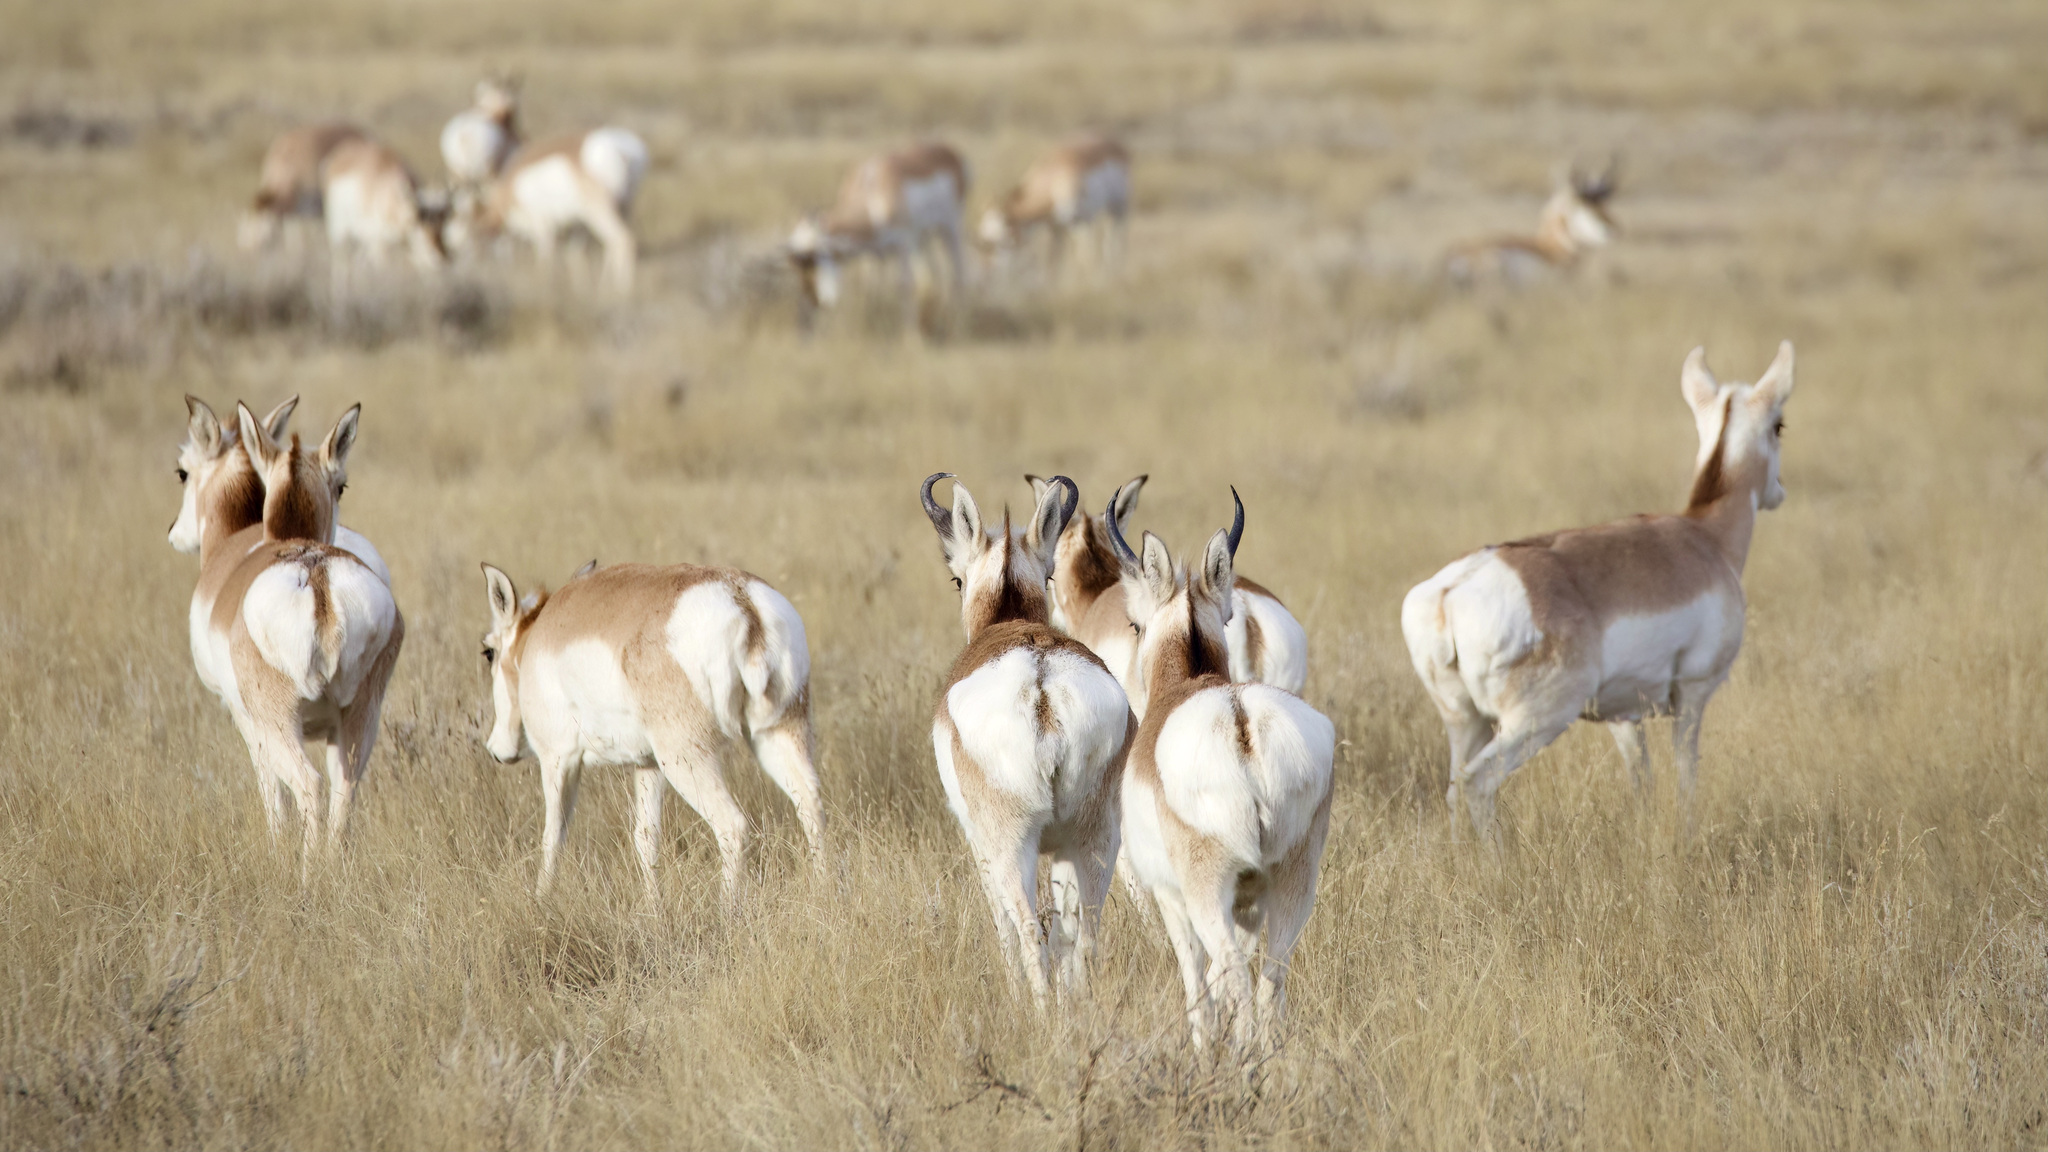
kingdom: Animalia
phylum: Chordata
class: Mammalia
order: Artiodactyla
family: Antilocapridae
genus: Antilocapra
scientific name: Antilocapra americana
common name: Pronghorn
